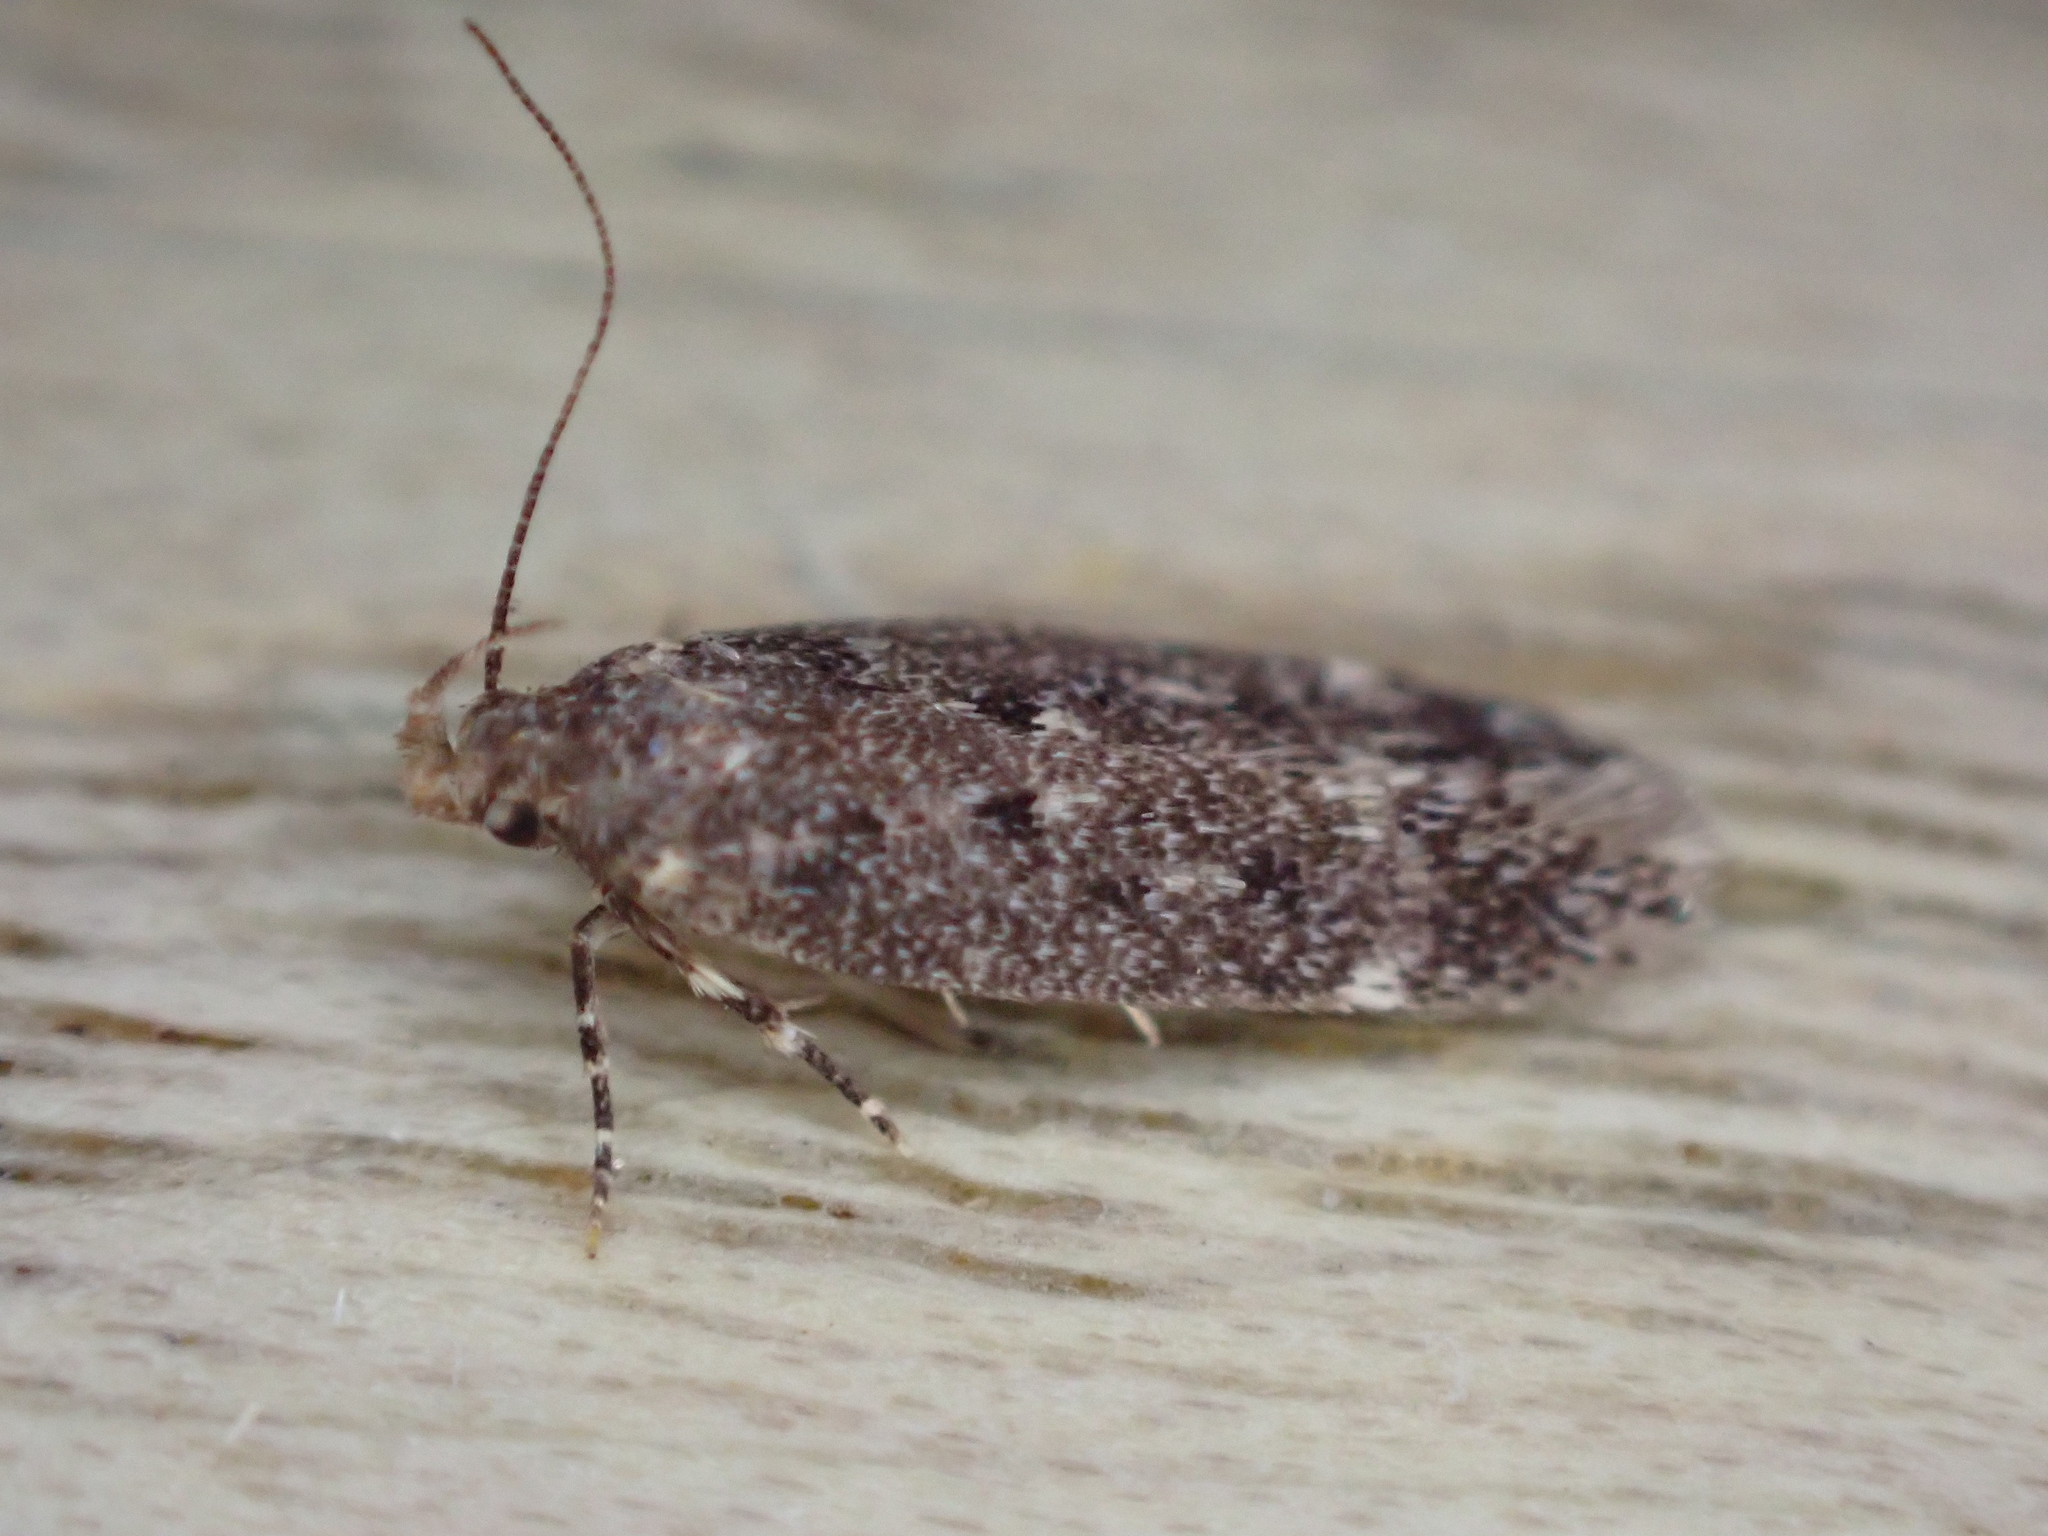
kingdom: Animalia
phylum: Arthropoda
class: Insecta
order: Lepidoptera
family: Gelechiidae
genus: Bryotropha
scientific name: Bryotropha affinis
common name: Dark groundling
